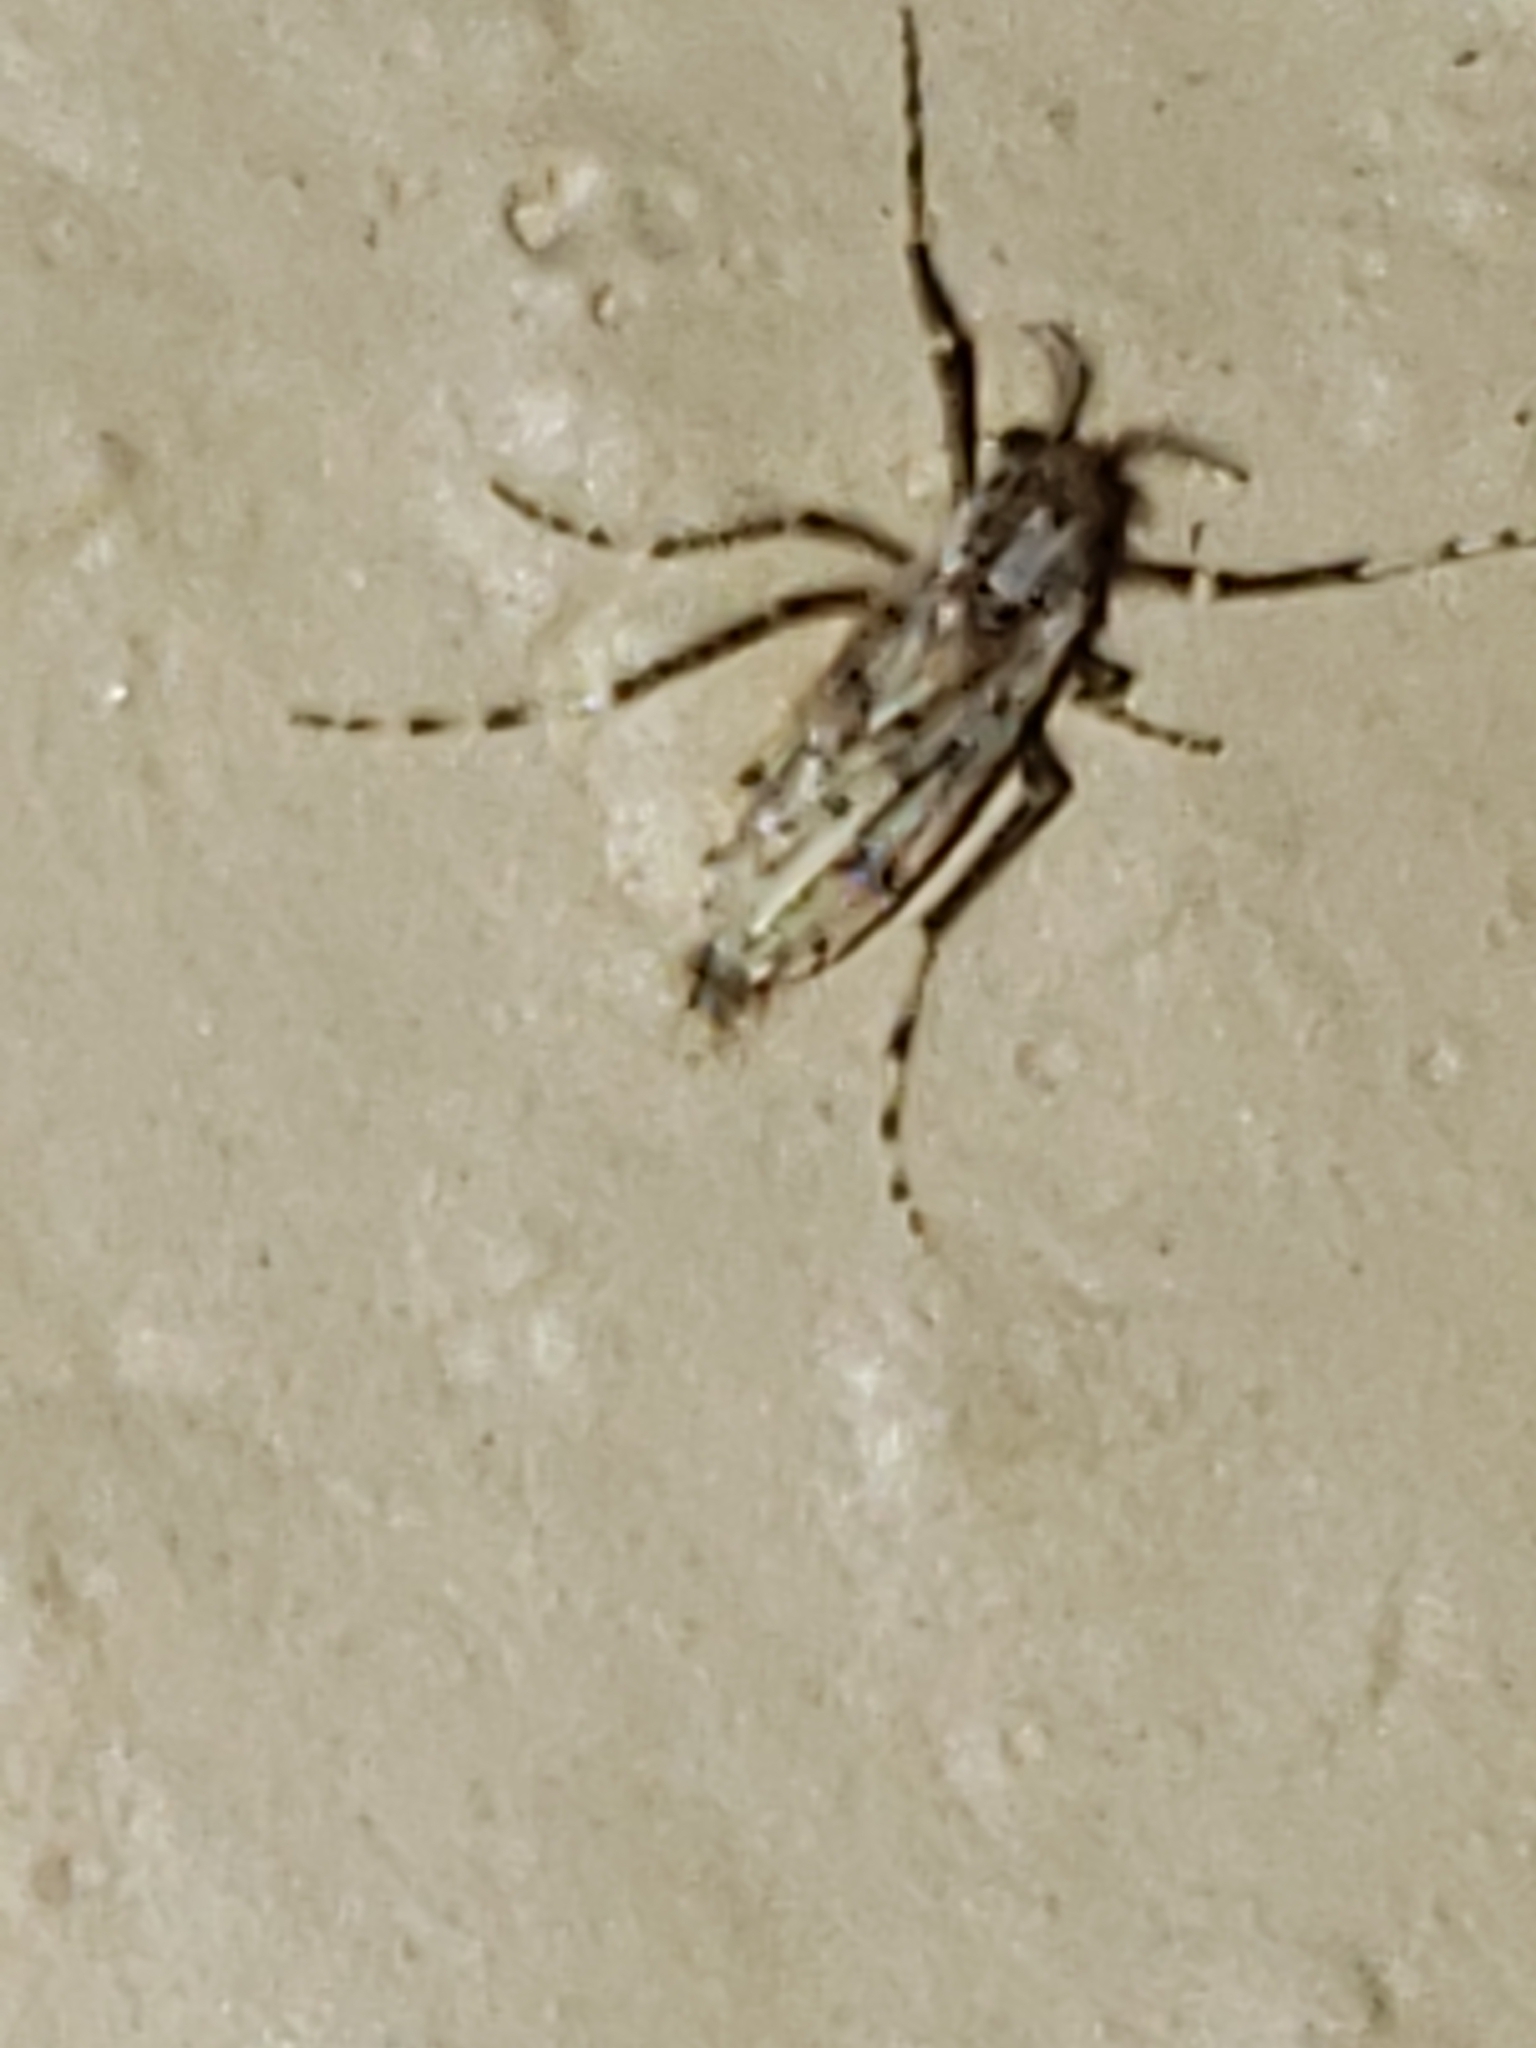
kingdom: Animalia
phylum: Arthropoda
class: Insecta
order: Diptera
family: Chaoboridae
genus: Chaoborus
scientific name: Chaoborus punctipennis
